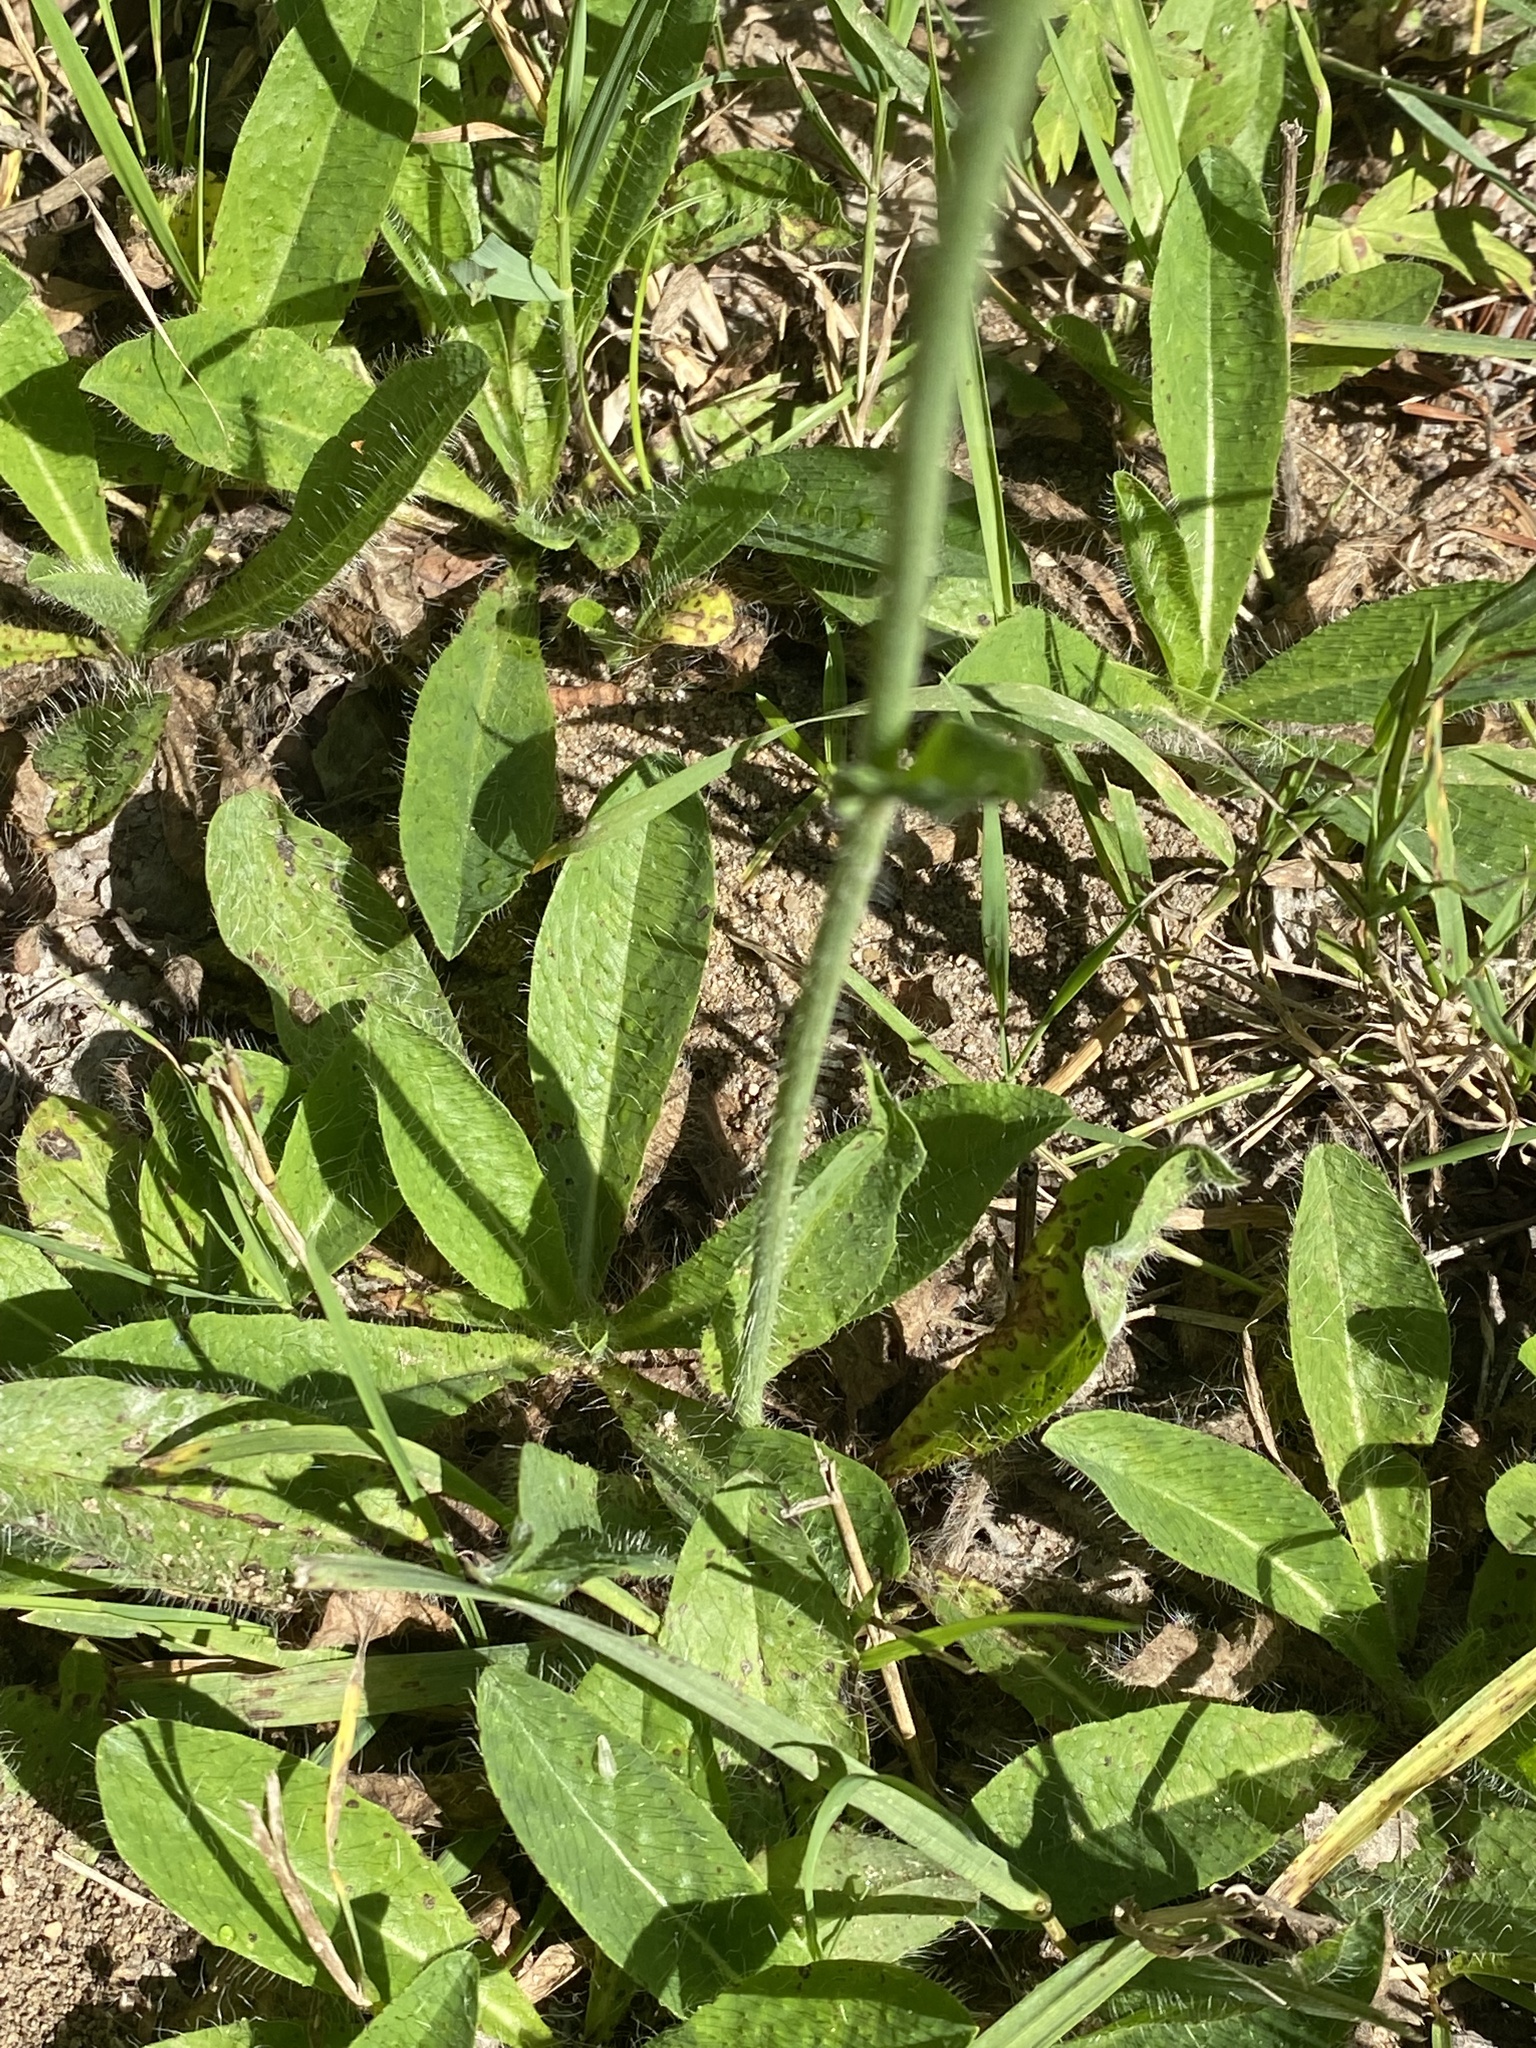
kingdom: Plantae
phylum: Tracheophyta
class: Magnoliopsida
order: Asterales
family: Asteraceae
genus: Pilosella
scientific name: Pilosella aurantiaca
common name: Fox-and-cubs
